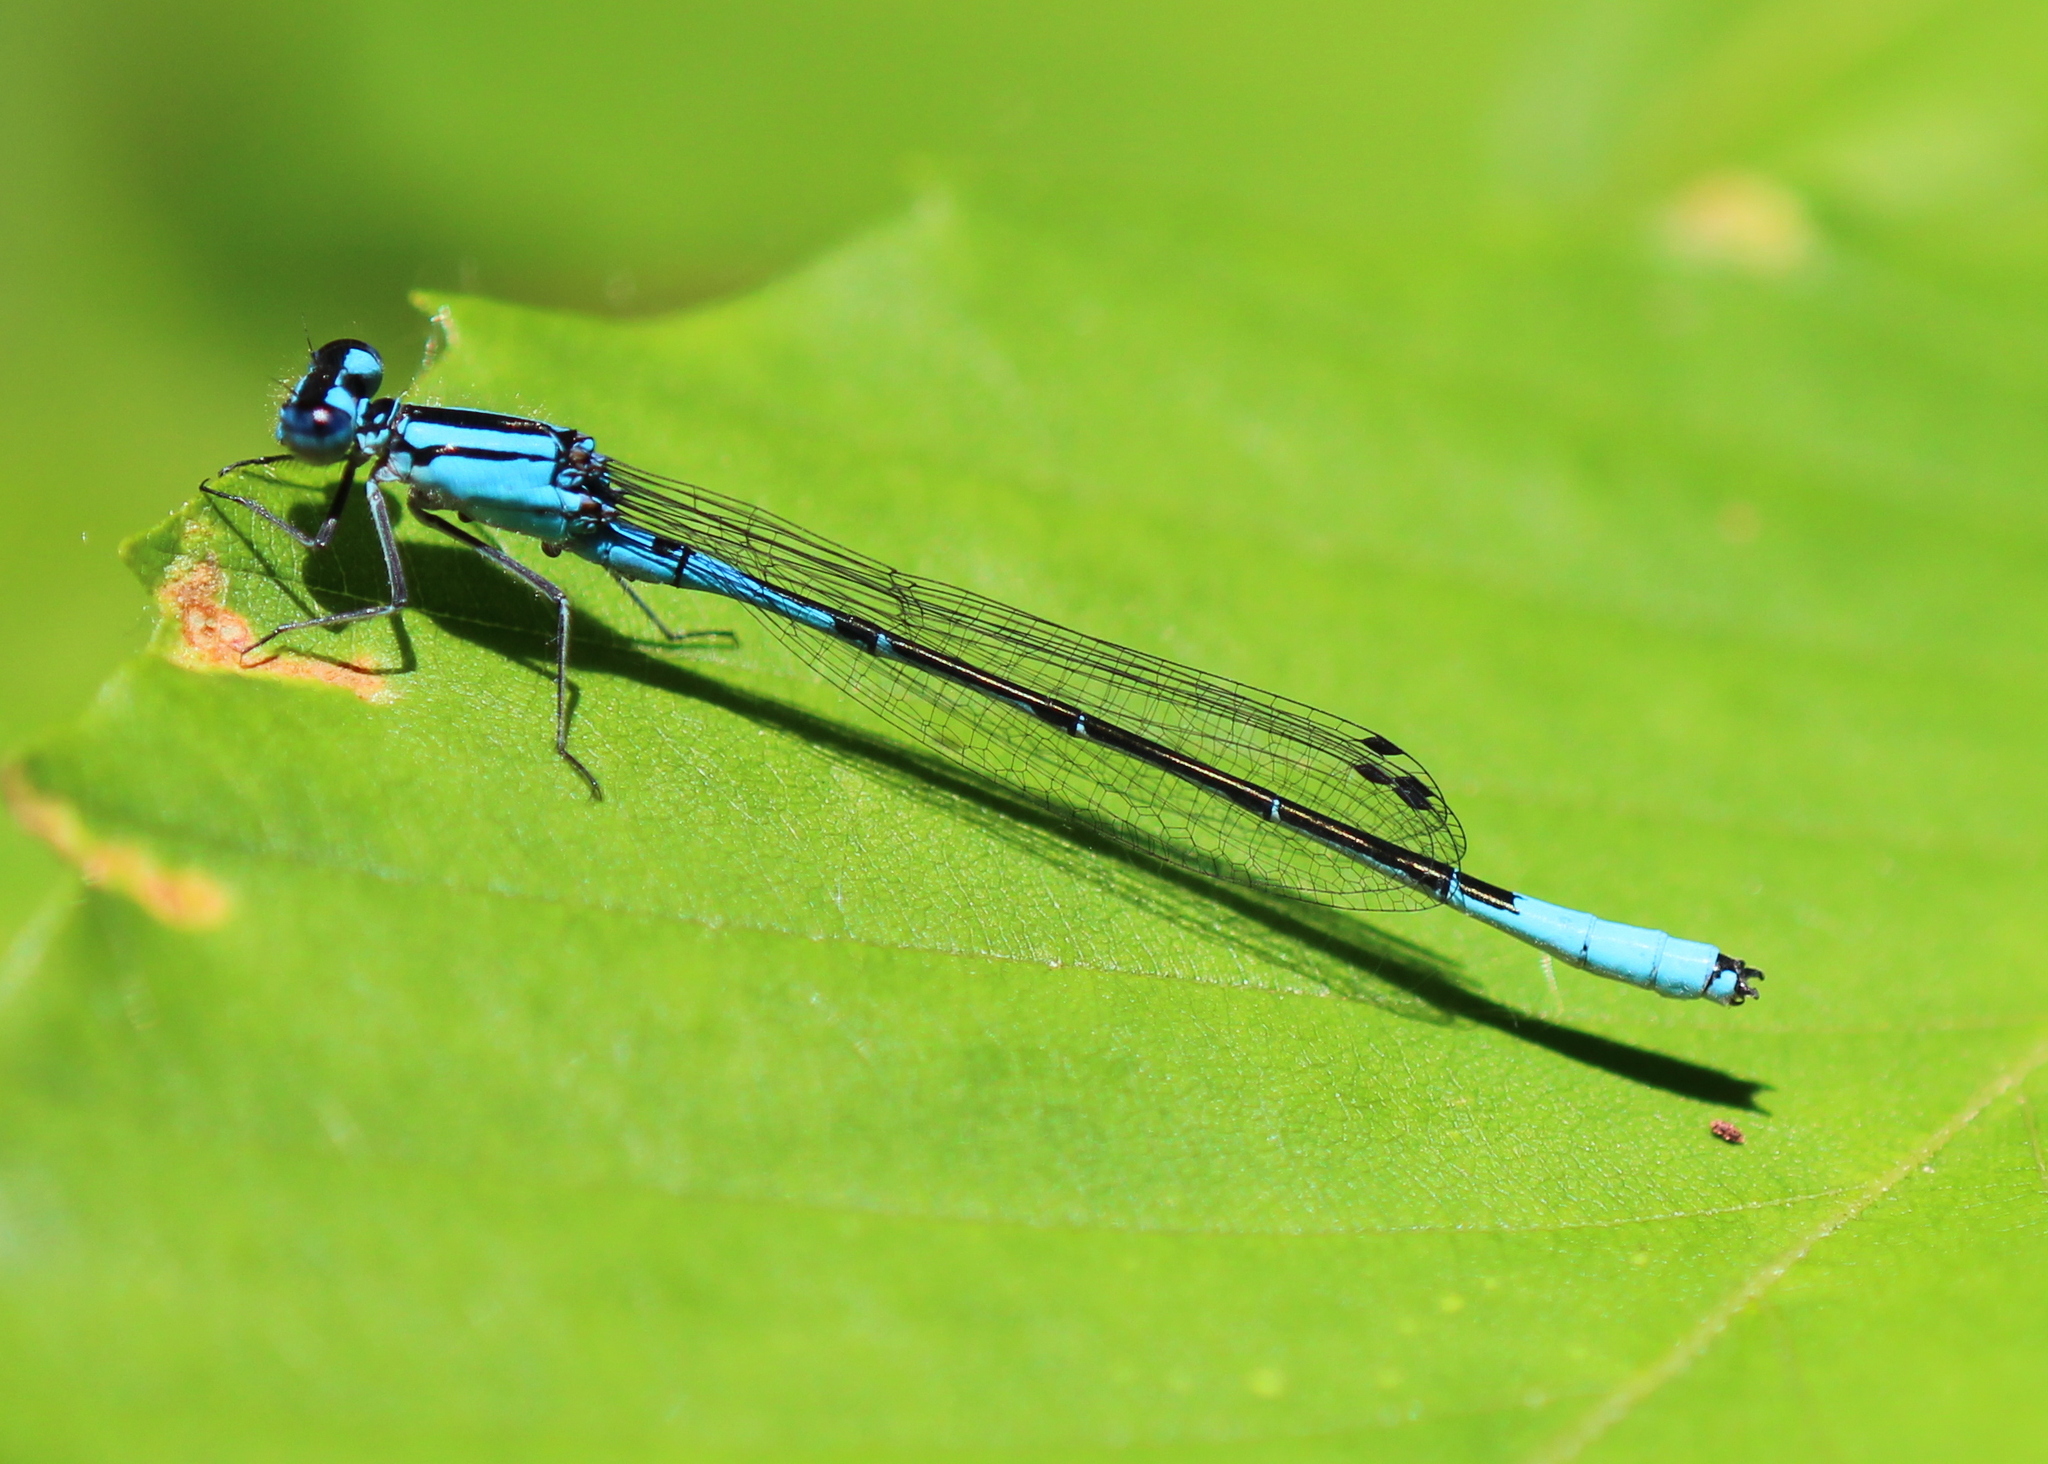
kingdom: Animalia
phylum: Arthropoda
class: Insecta
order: Odonata
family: Coenagrionidae
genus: Enallagma
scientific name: Enallagma aspersum
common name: Azure bluet
